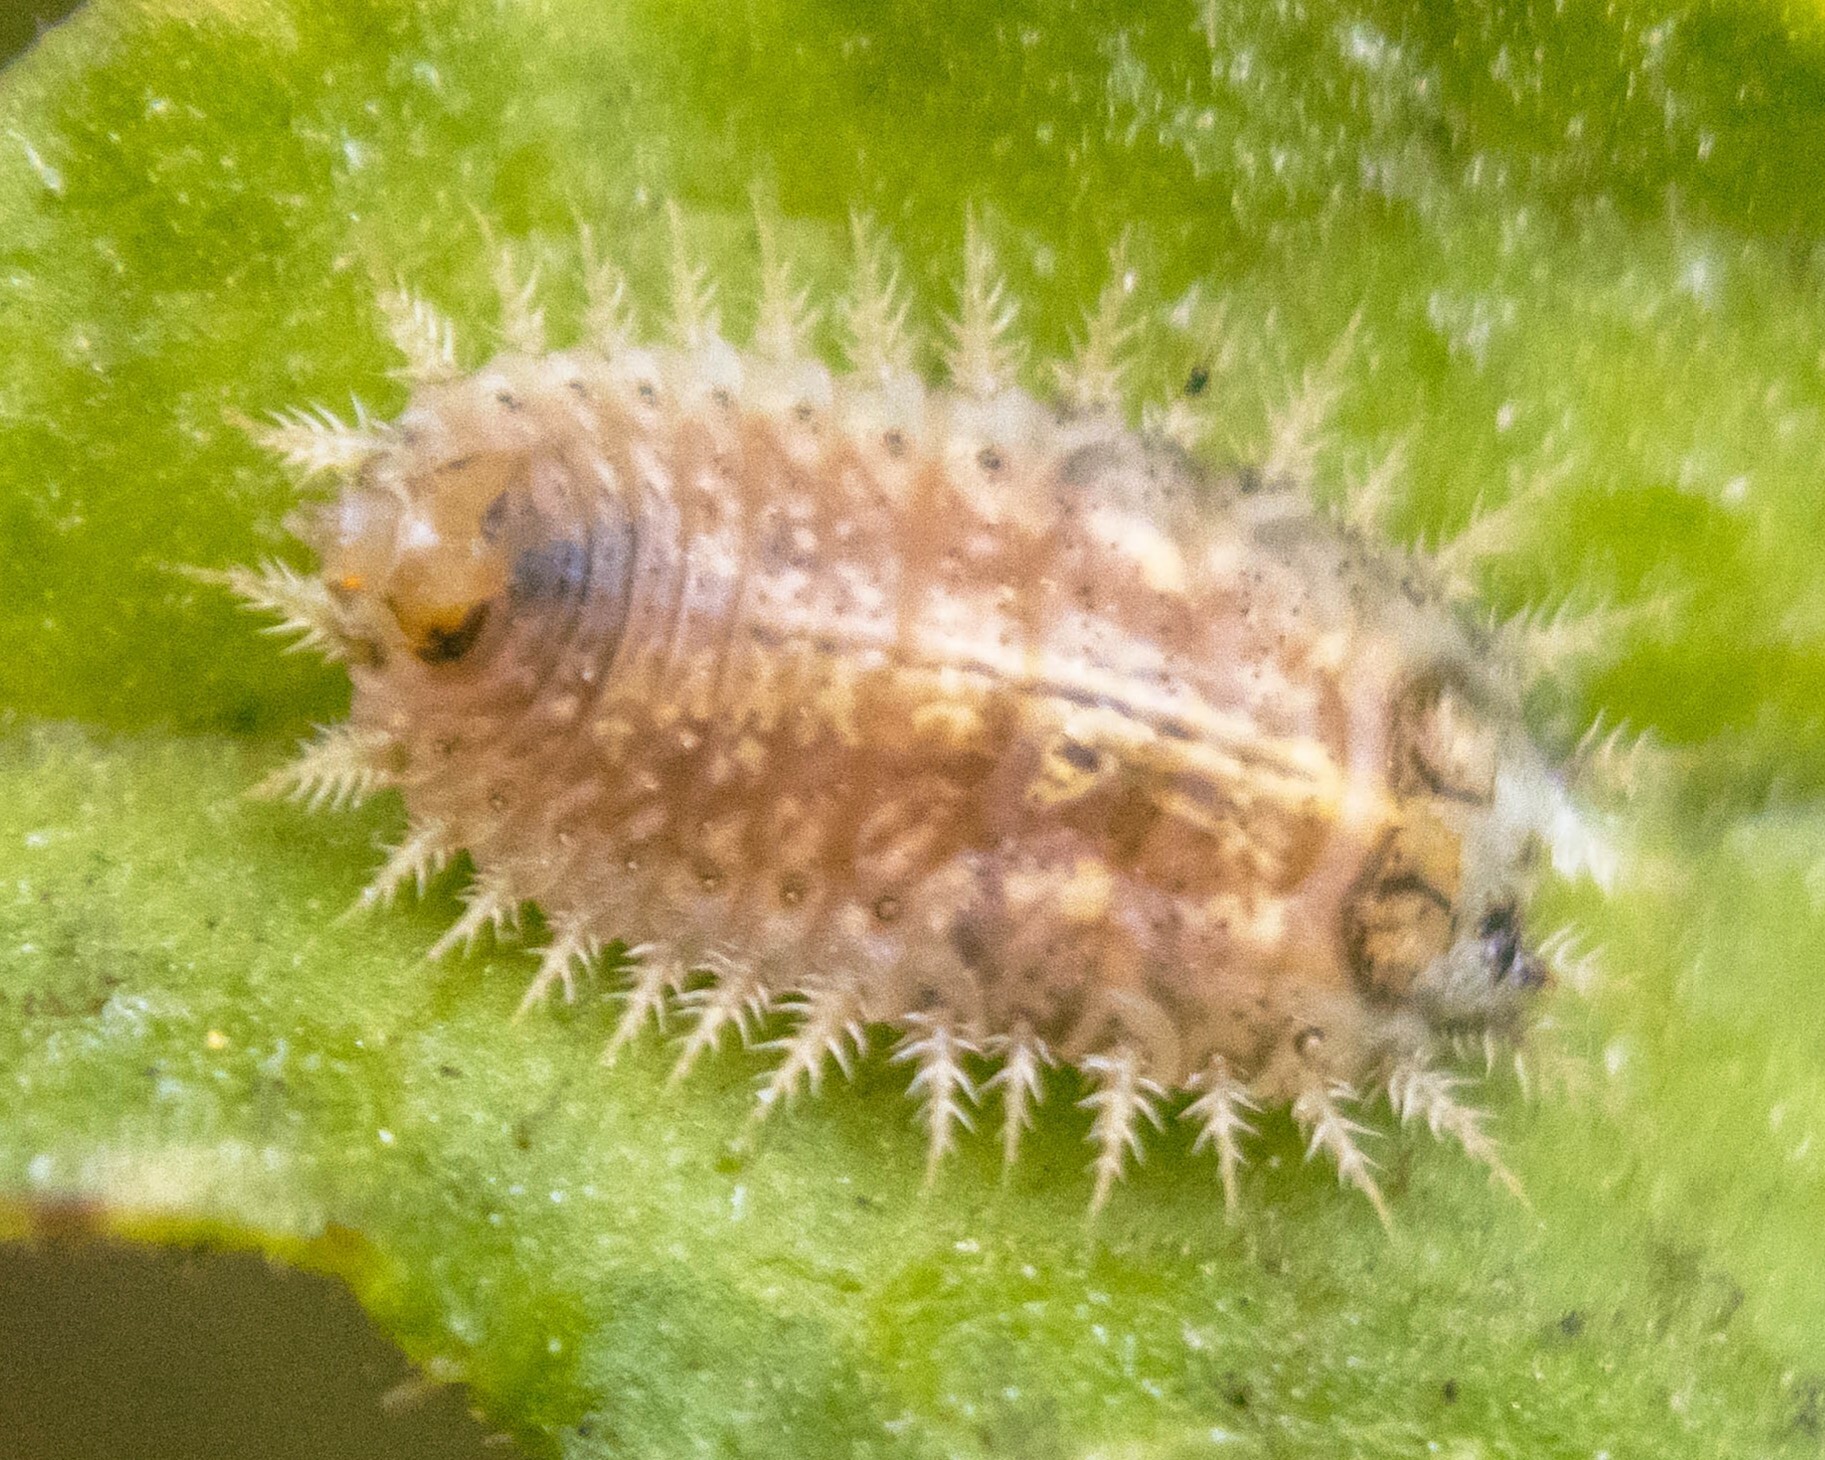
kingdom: Animalia
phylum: Arthropoda
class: Insecta
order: Coleoptera
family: Chrysomelidae
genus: Cassida
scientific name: Cassida rubiginosa
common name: Thistle tortoise beetle
